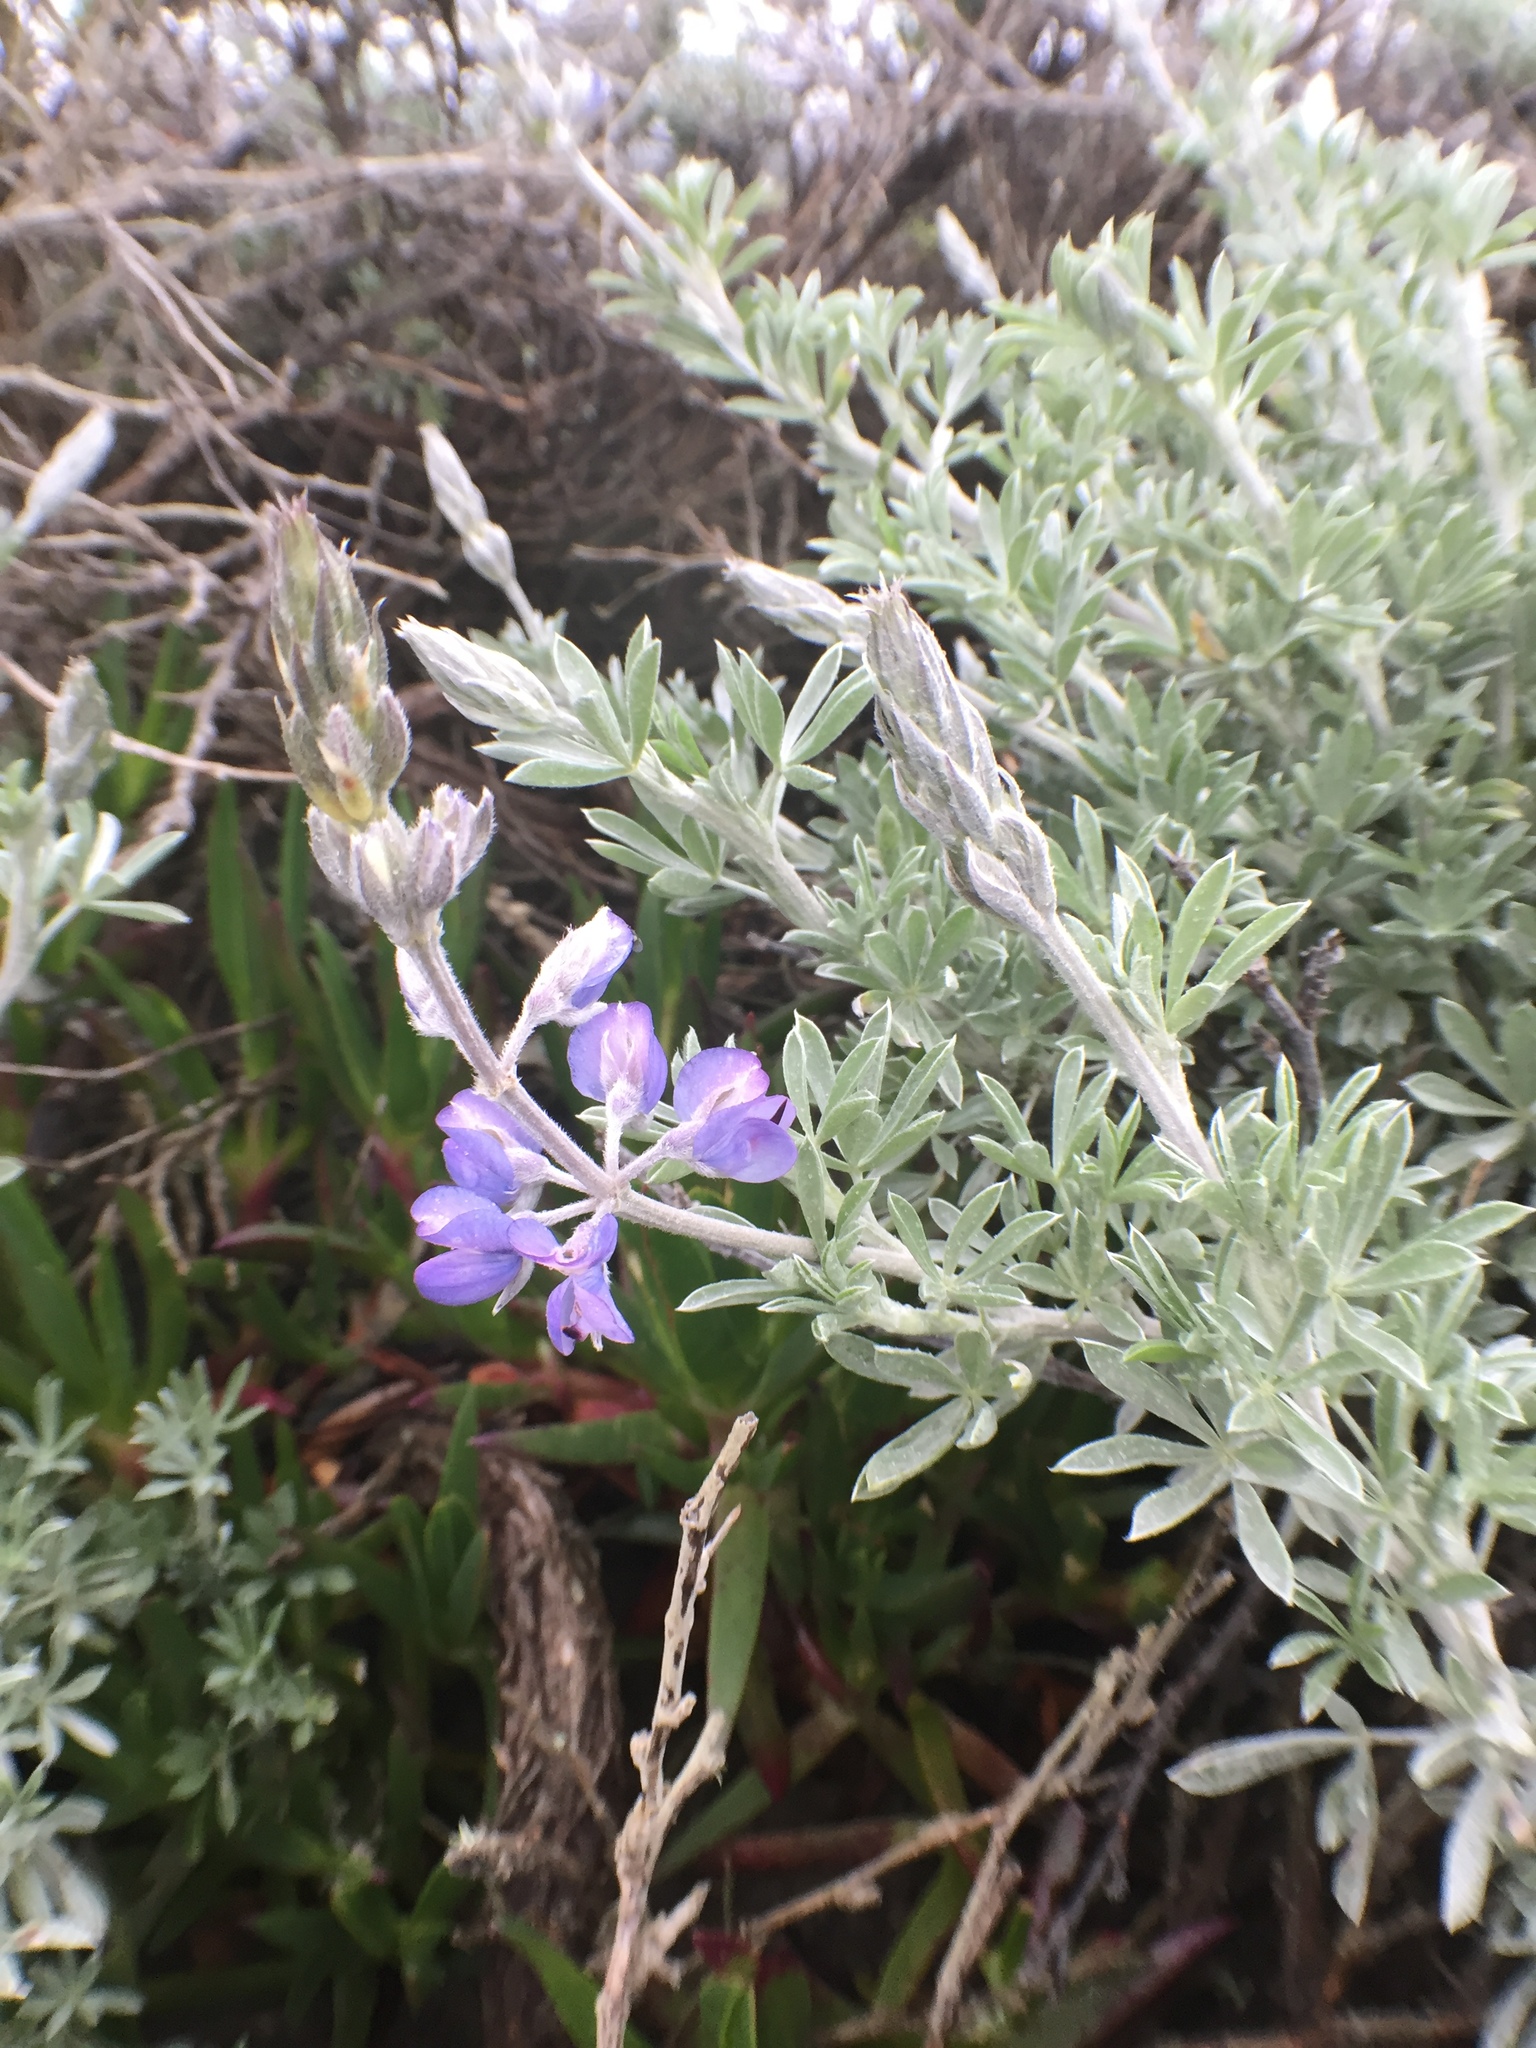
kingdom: Plantae
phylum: Tracheophyta
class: Magnoliopsida
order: Fabales
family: Fabaceae
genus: Lupinus
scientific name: Lupinus chamissonis
